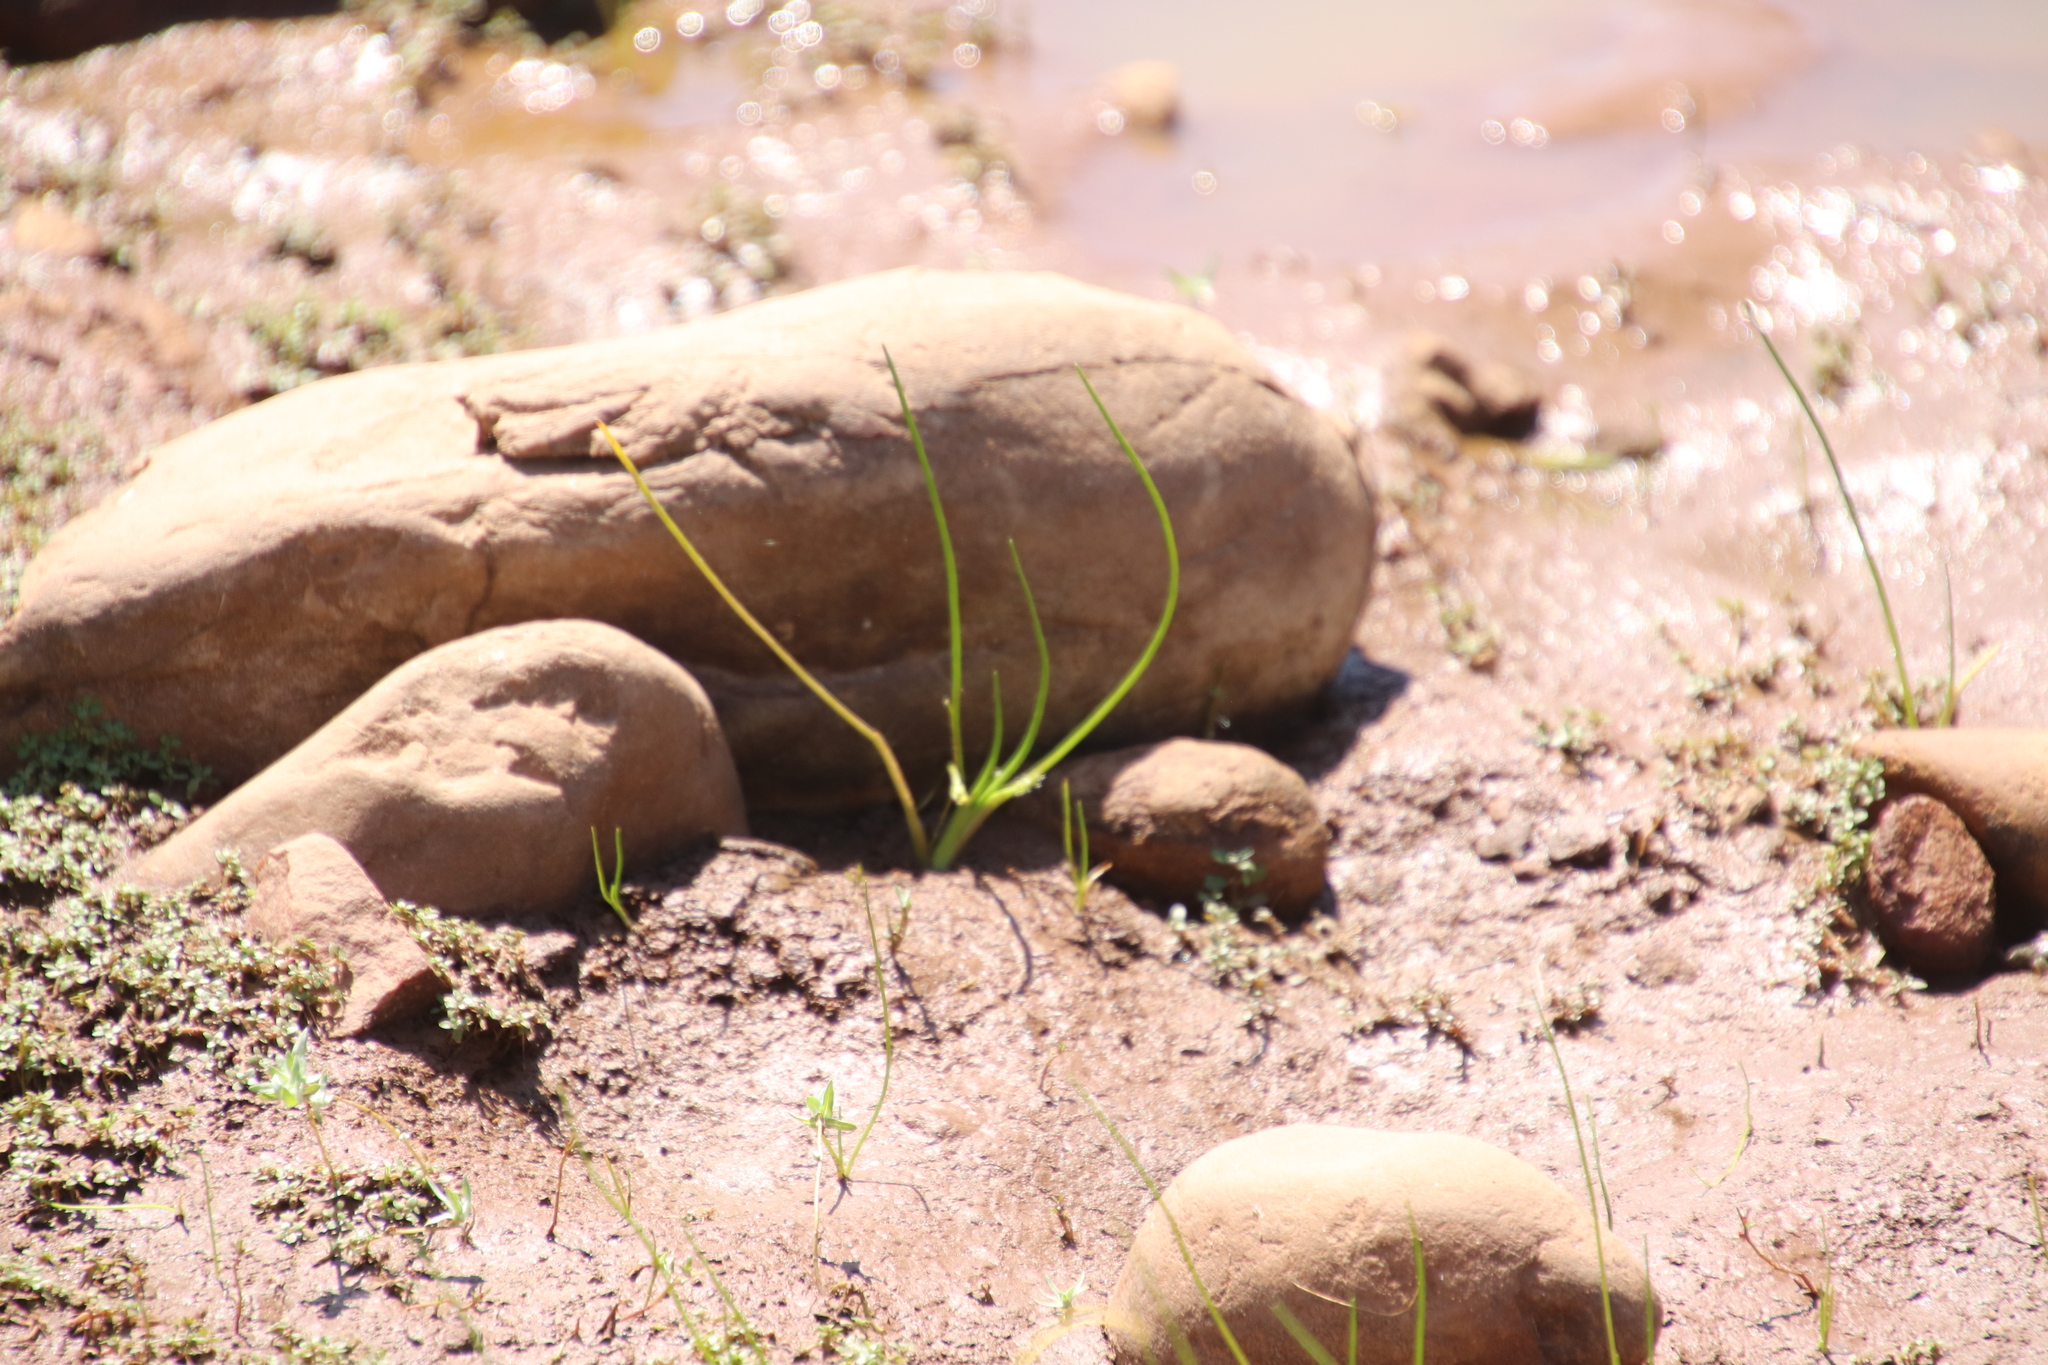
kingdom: Plantae
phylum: Tracheophyta
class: Liliopsida
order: Alismatales
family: Juncaginaceae
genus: Triglochin
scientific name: Triglochin scilloides
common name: Awl-leaved lilaea
